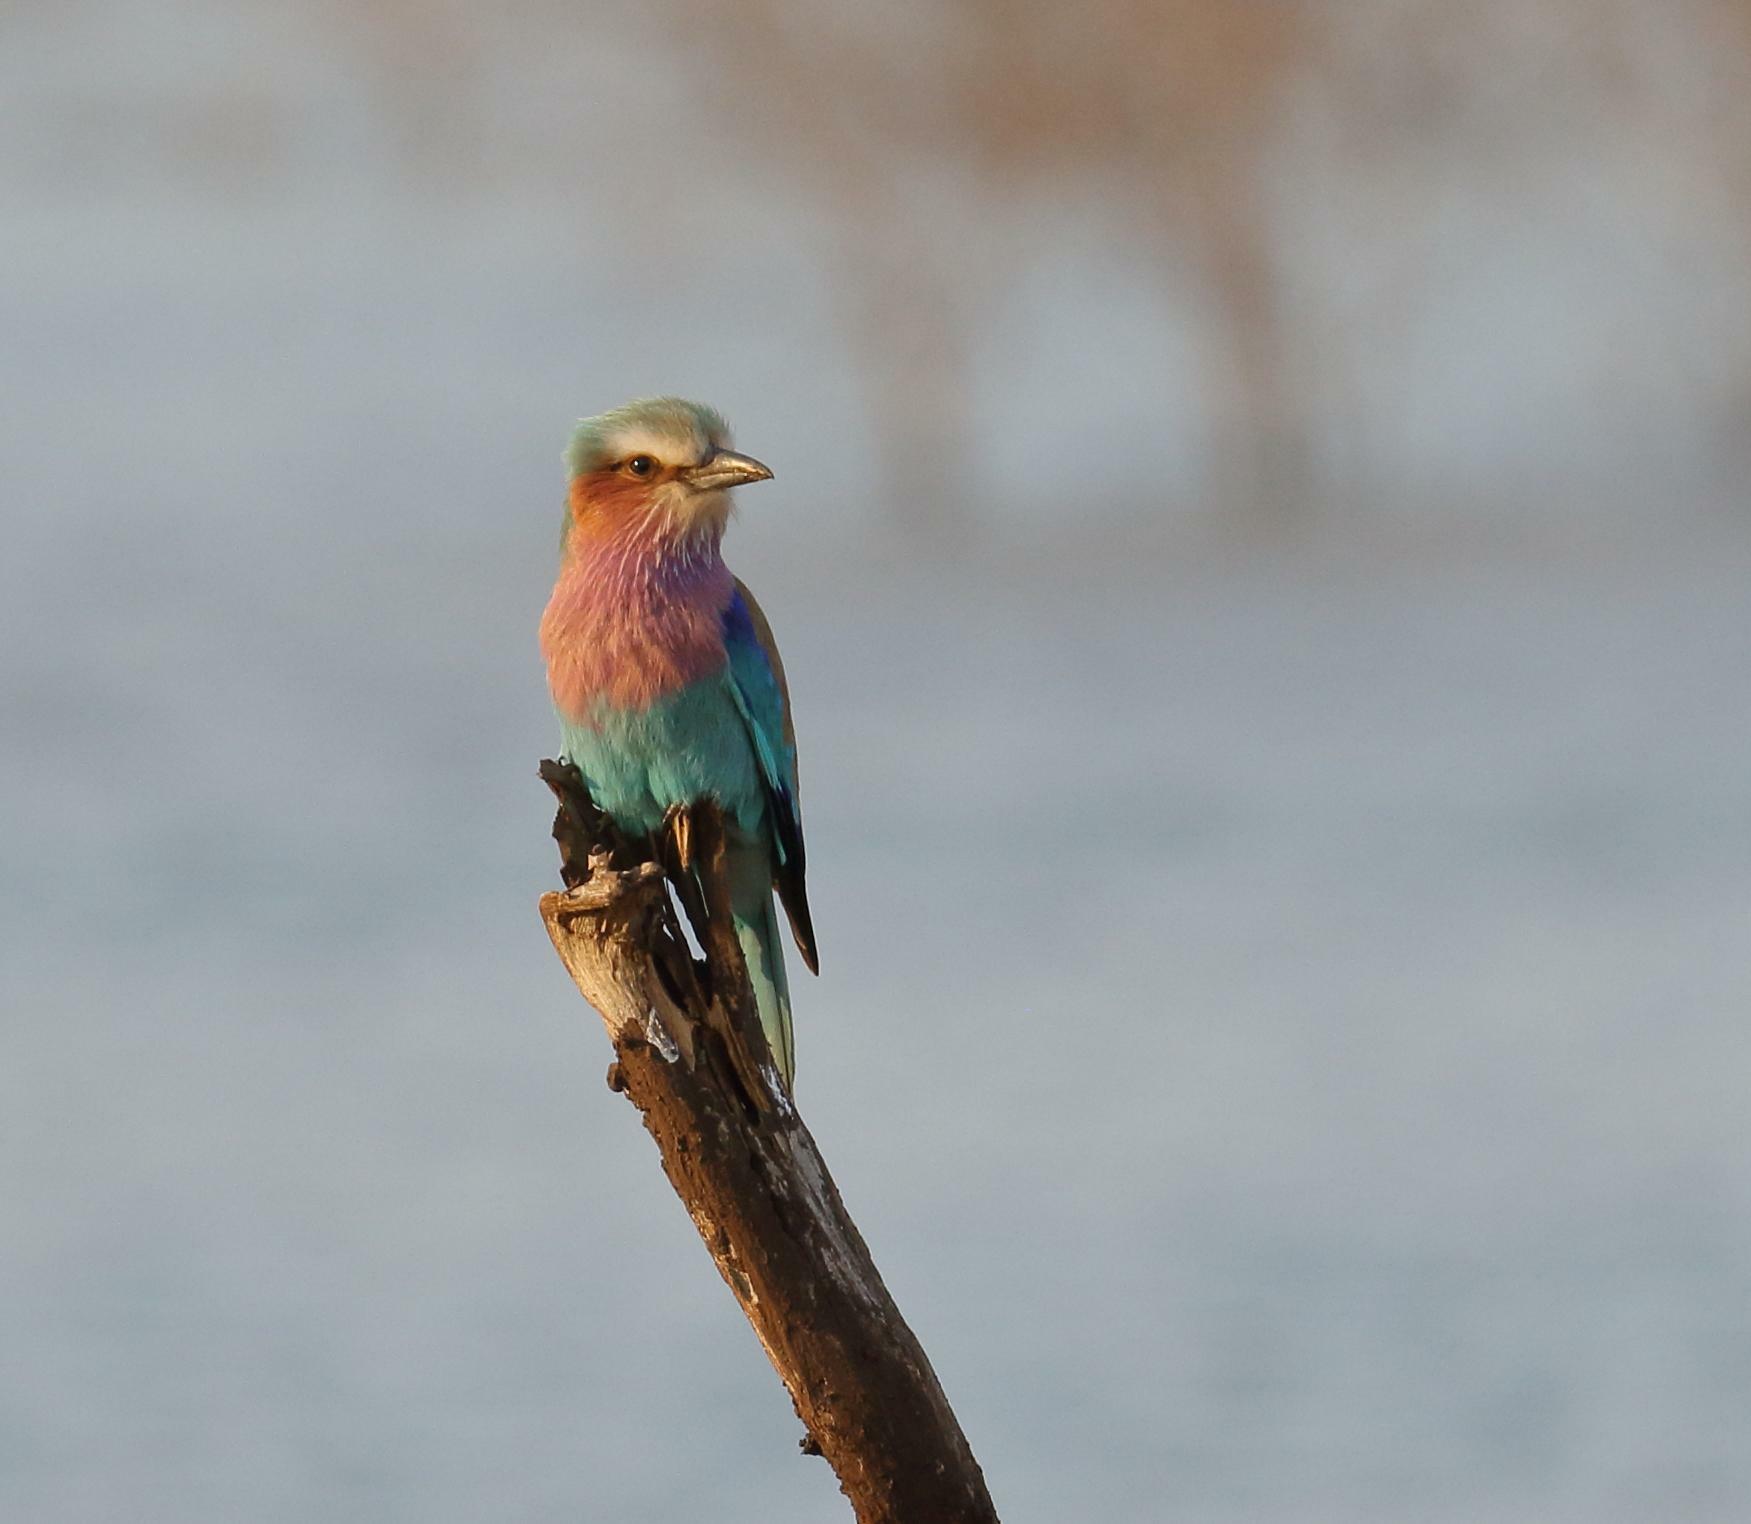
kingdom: Animalia
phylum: Chordata
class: Aves
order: Coraciiformes
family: Coraciidae
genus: Coracias
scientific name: Coracias caudatus
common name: Lilac-breasted roller
